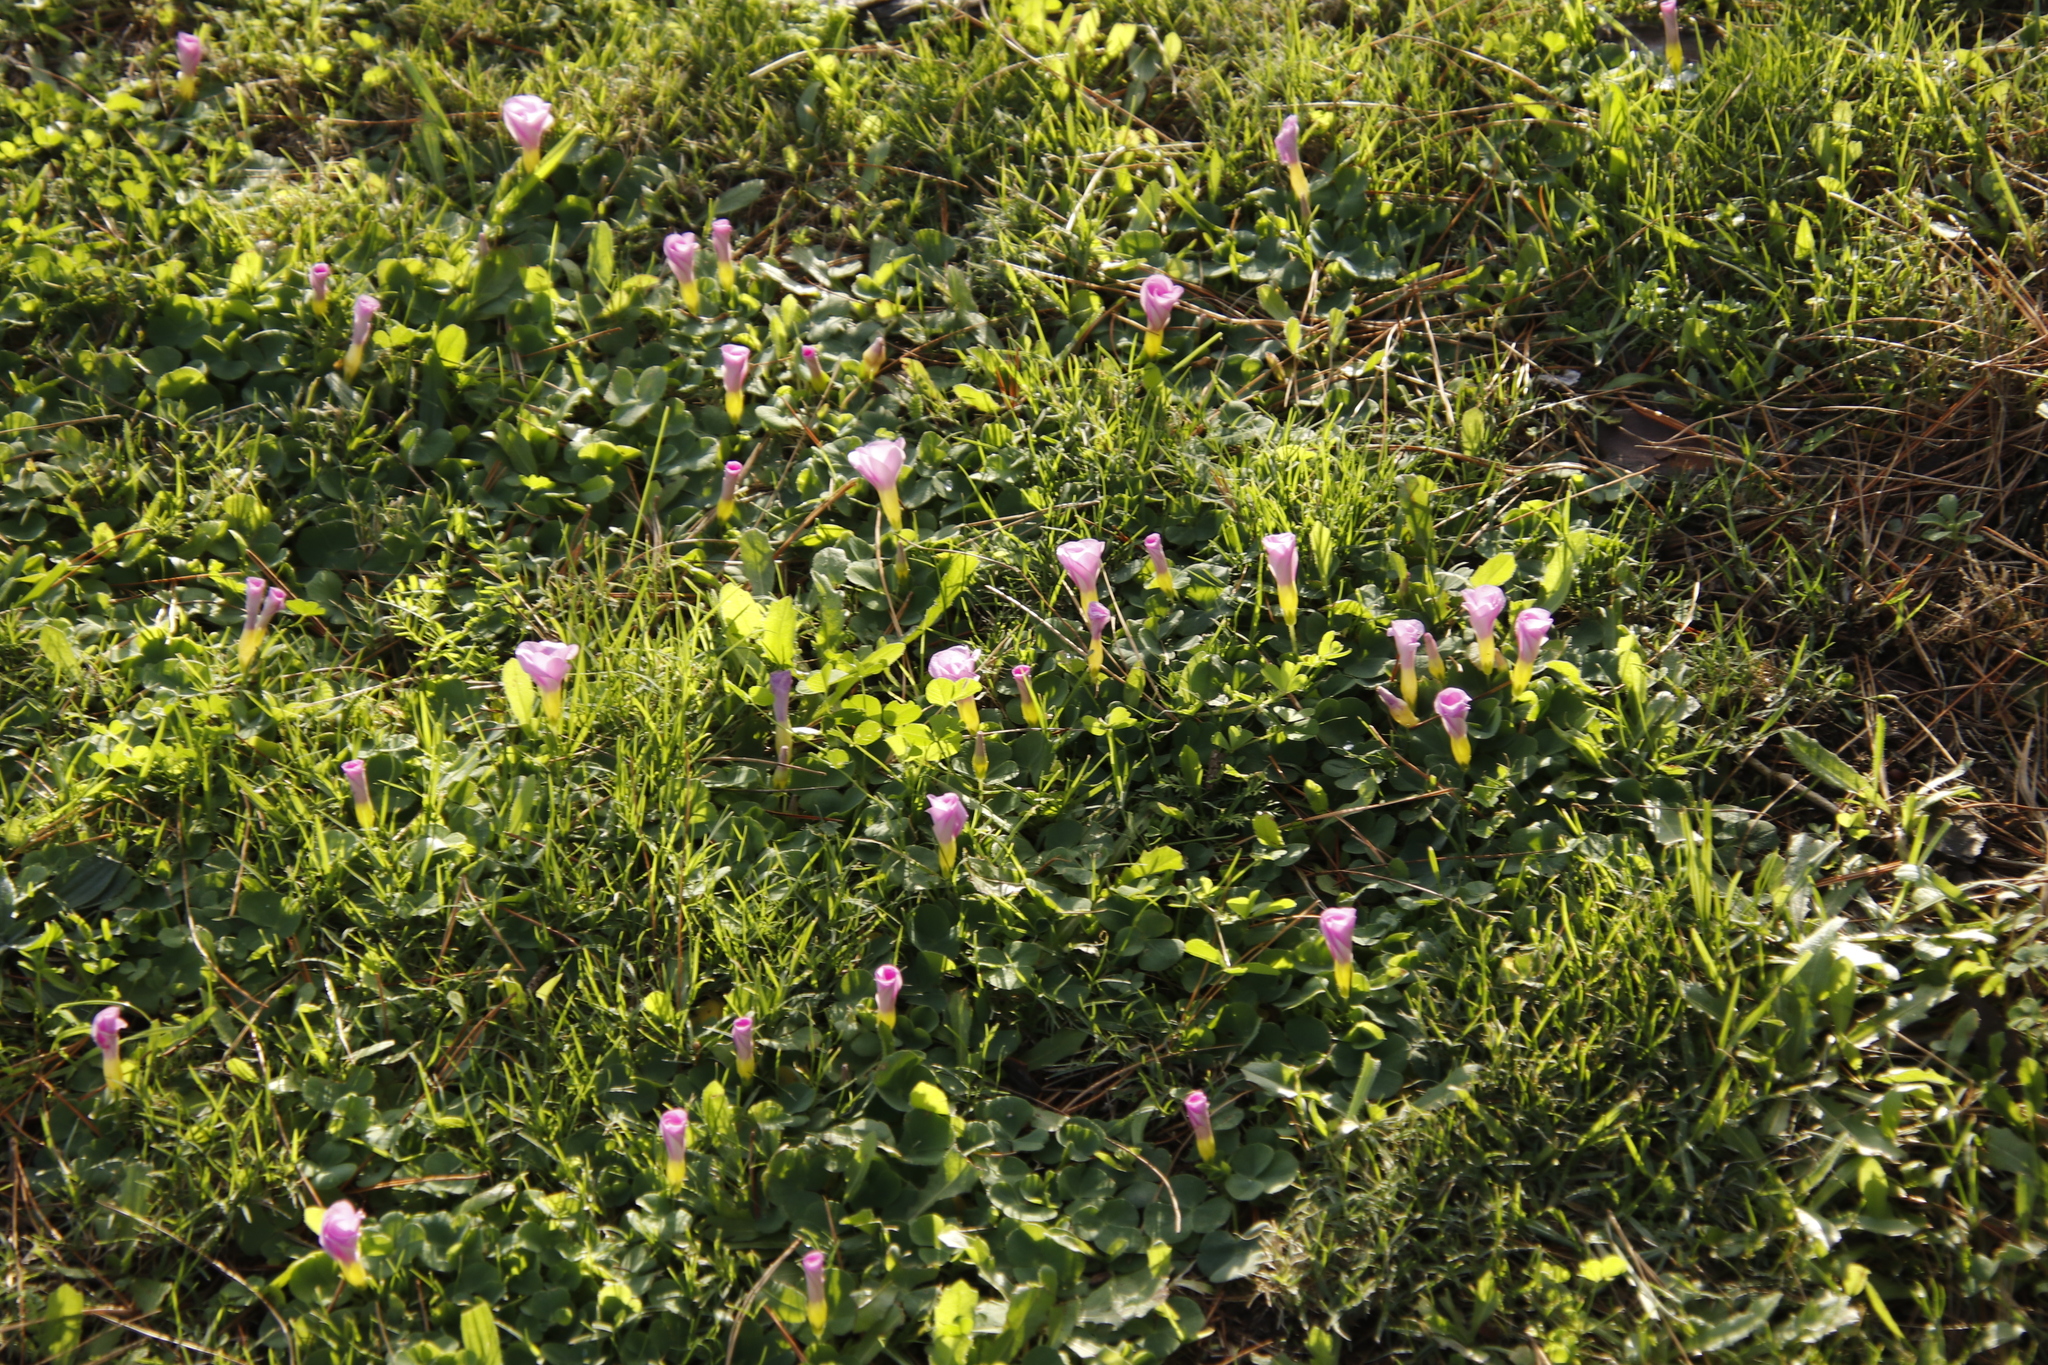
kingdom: Plantae
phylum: Tracheophyta
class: Magnoliopsida
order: Oxalidales
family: Oxalidaceae
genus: Oxalis
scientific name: Oxalis purpurea
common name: Purple woodsorrel
